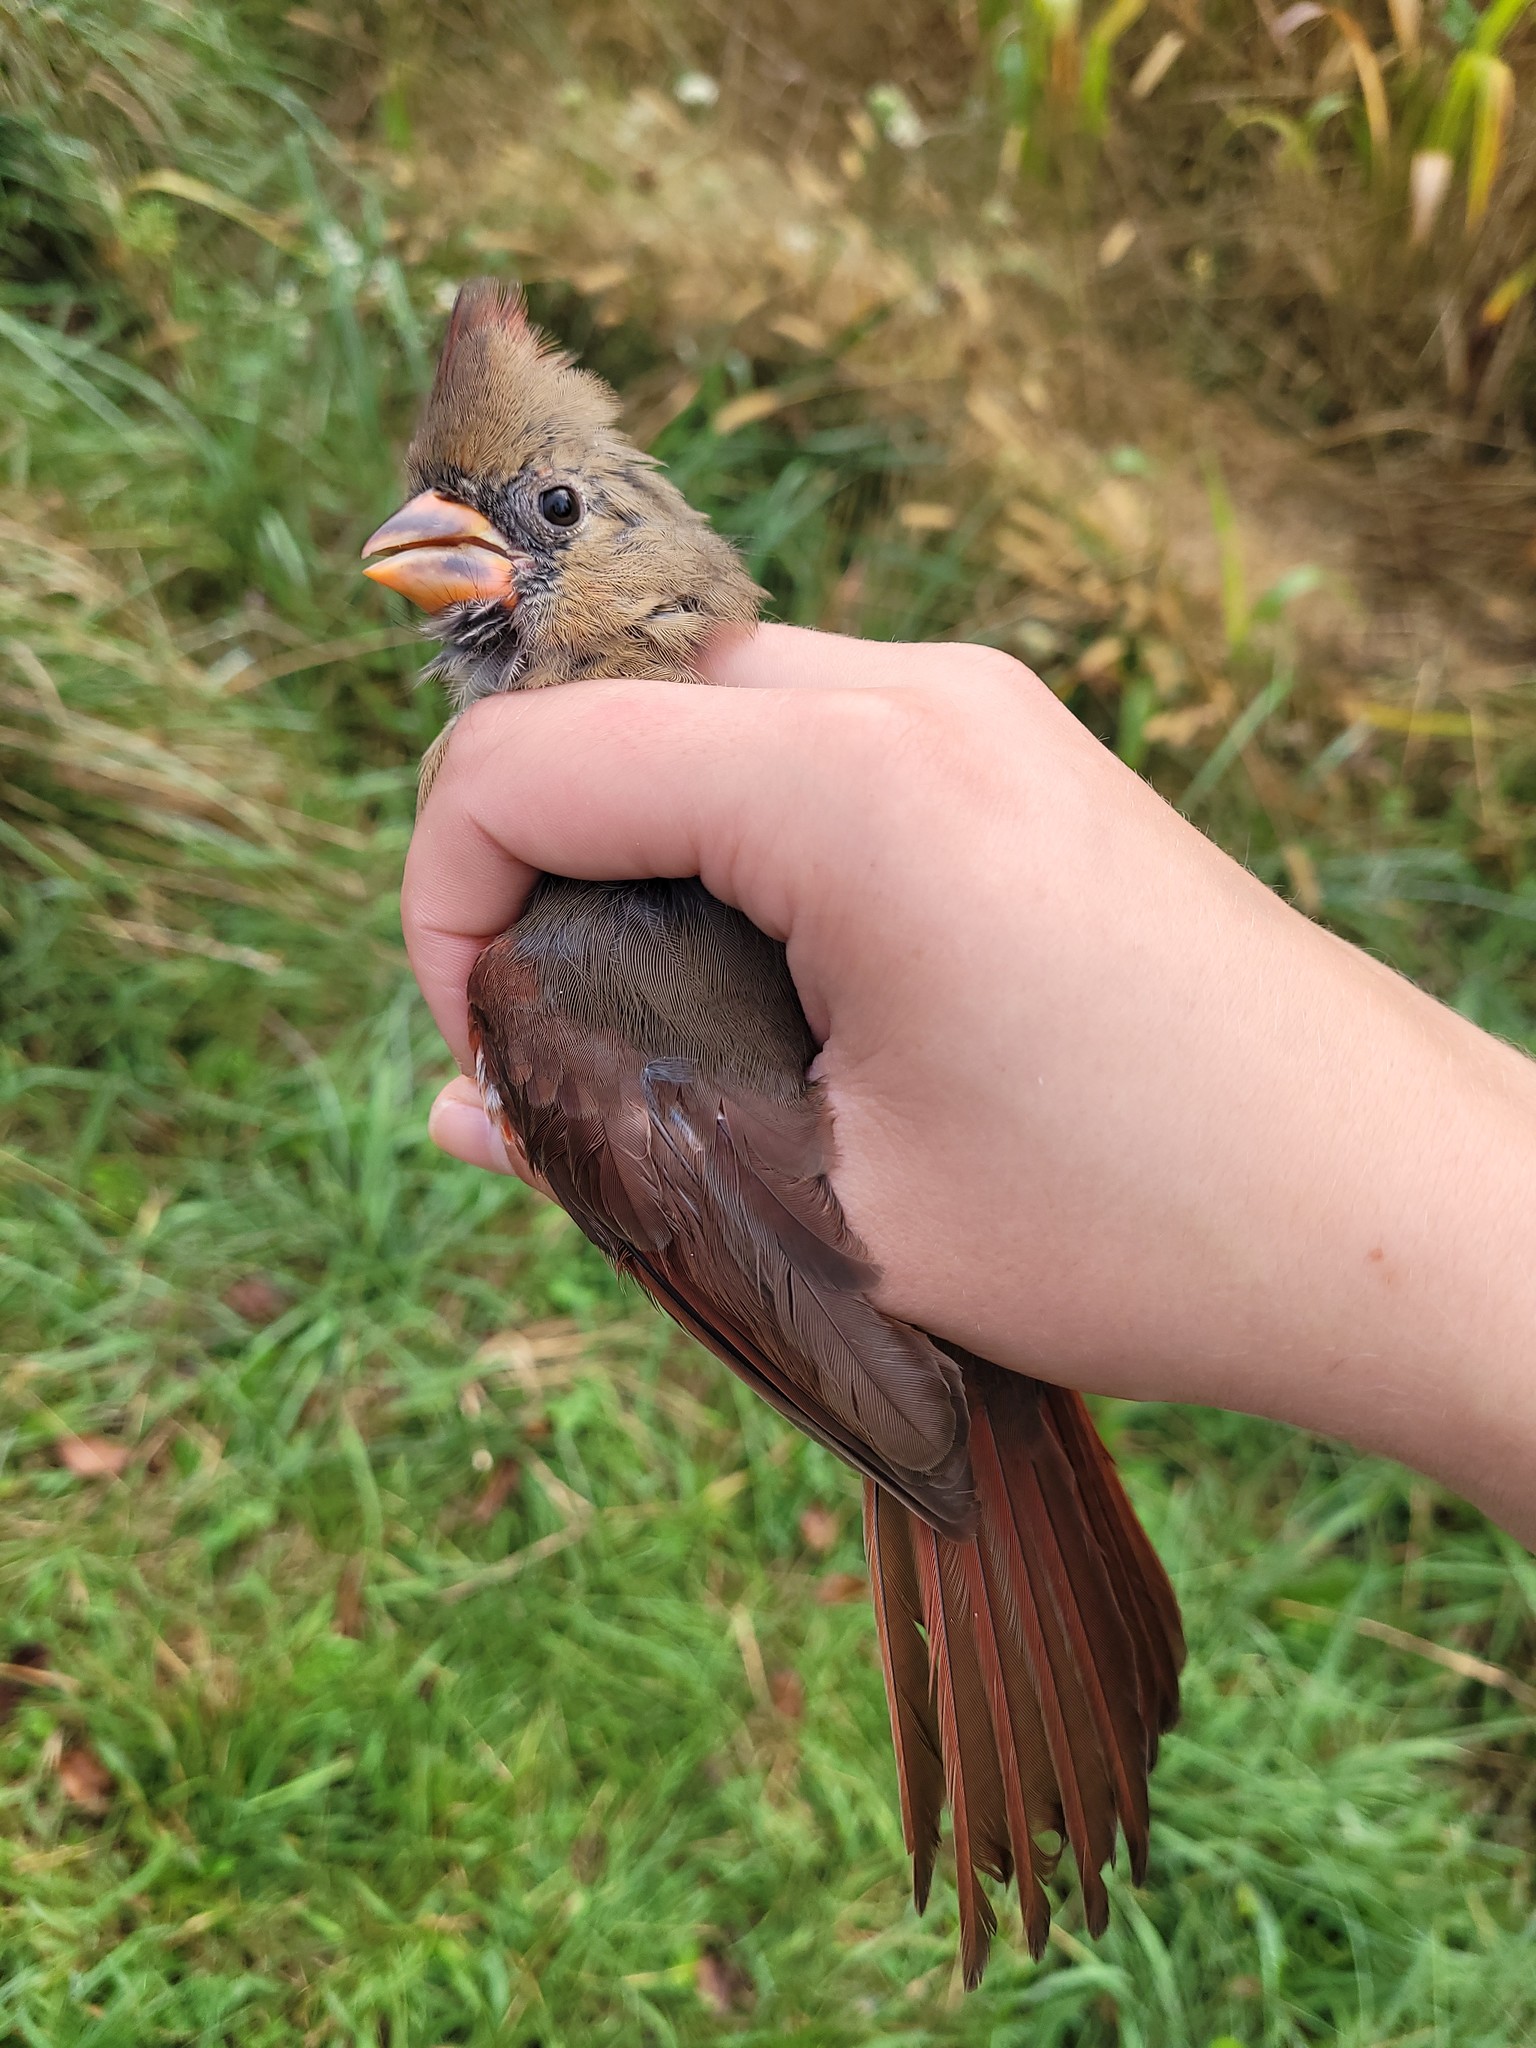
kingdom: Animalia
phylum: Chordata
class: Aves
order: Passeriformes
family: Cardinalidae
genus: Cardinalis
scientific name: Cardinalis cardinalis
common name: Northern cardinal
